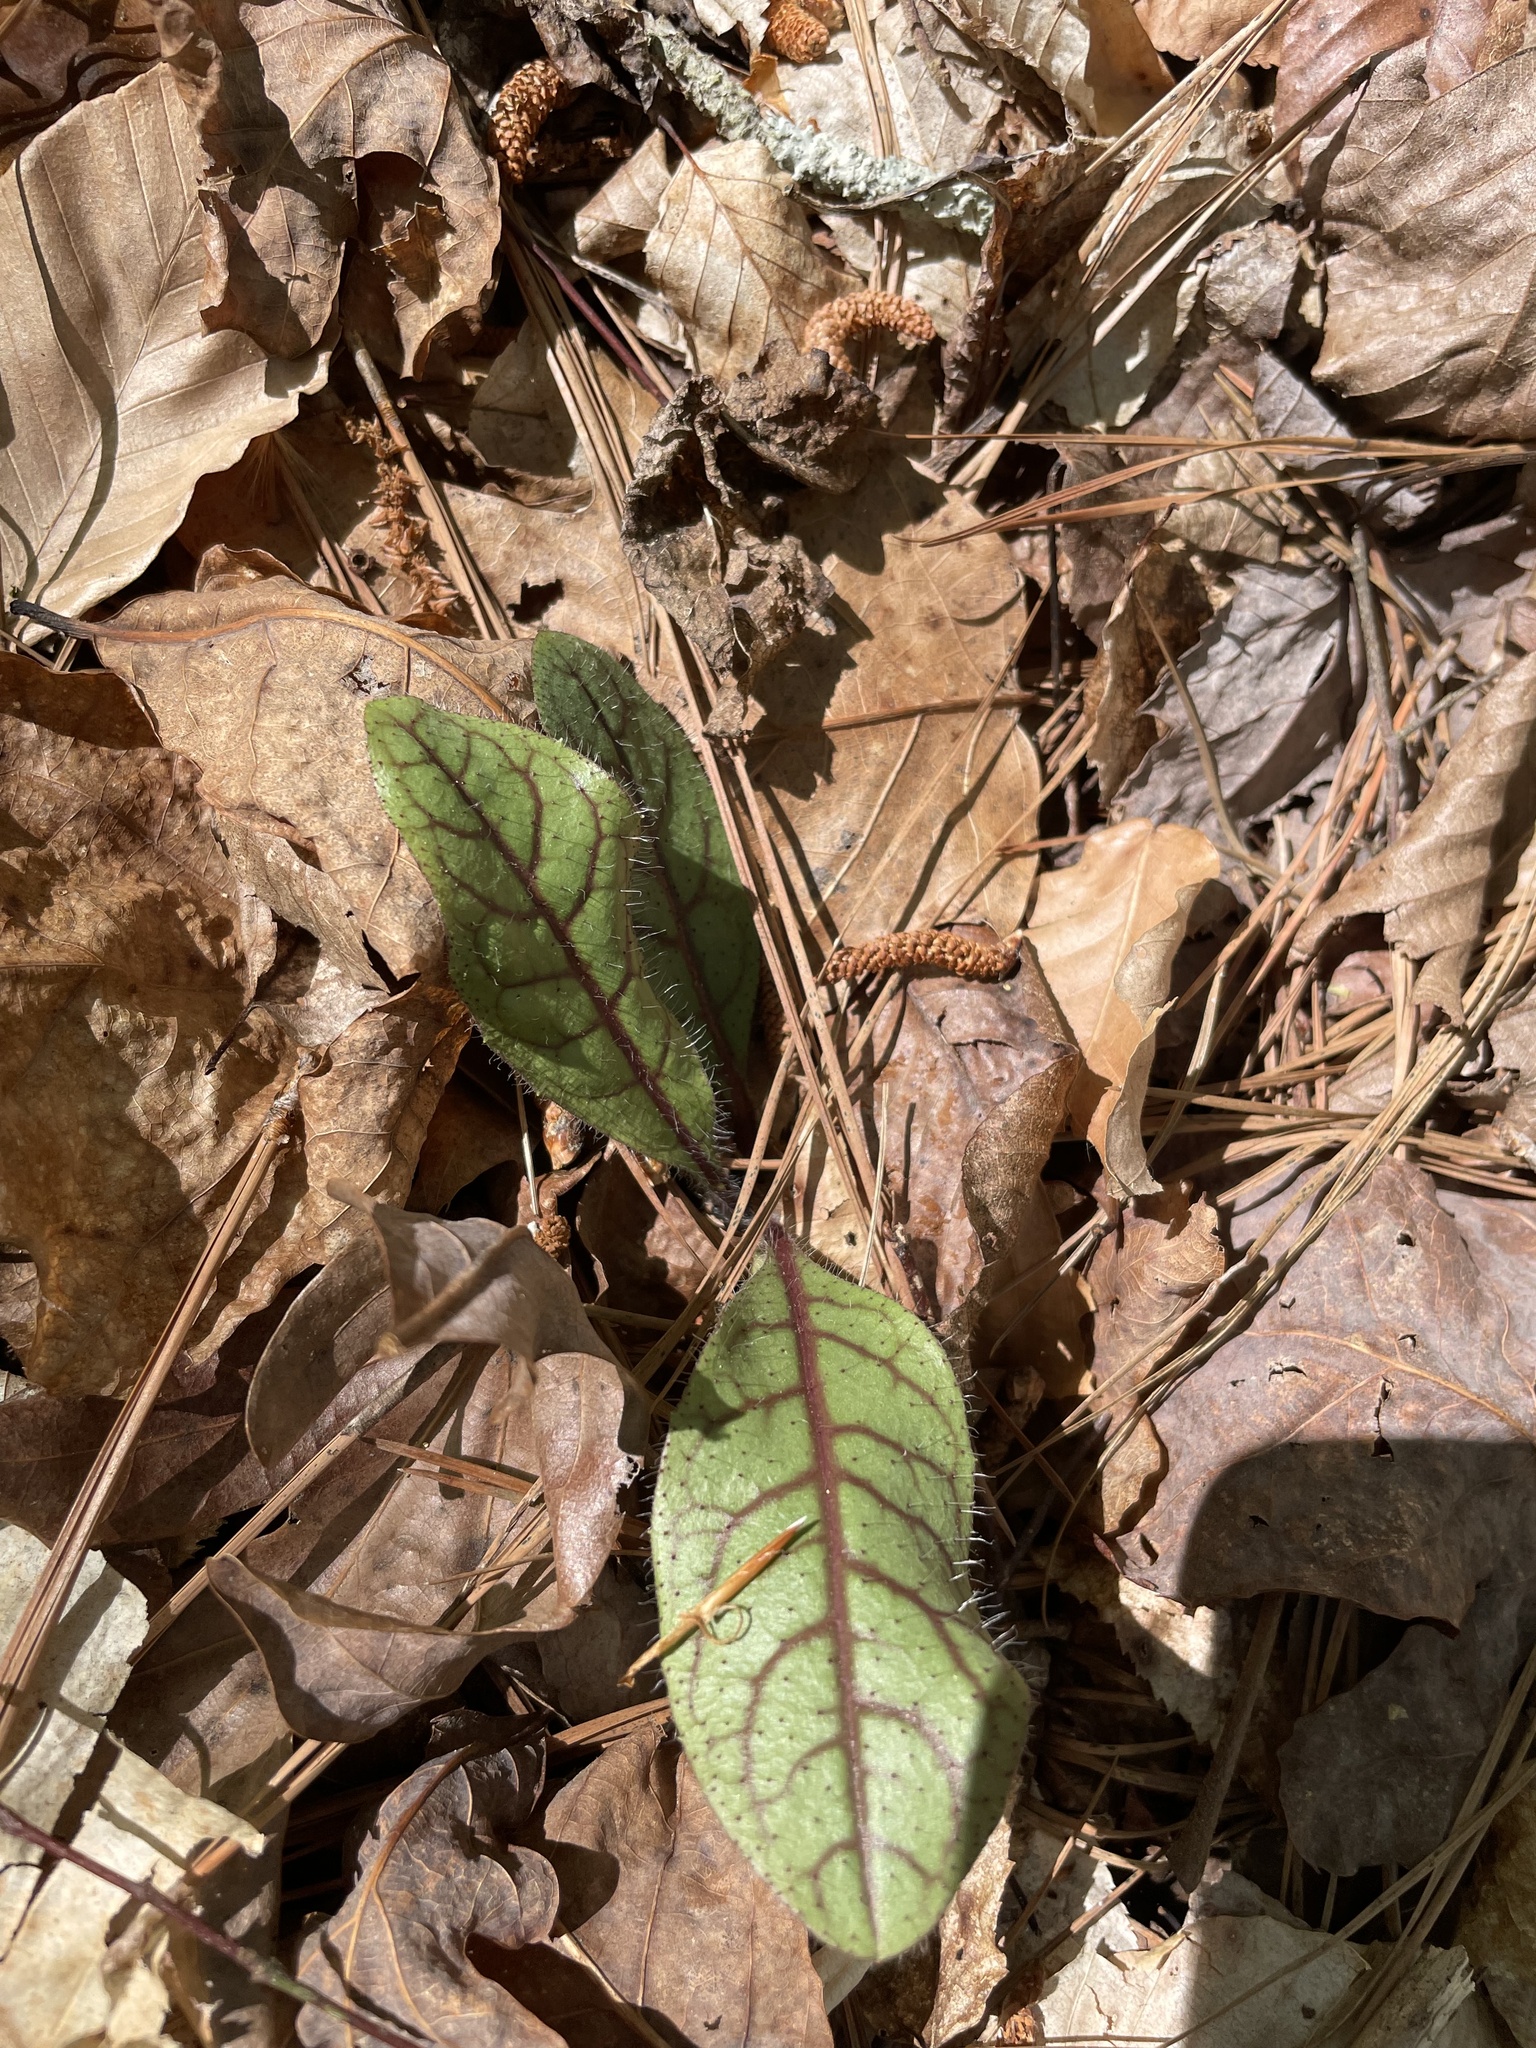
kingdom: Plantae
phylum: Tracheophyta
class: Magnoliopsida
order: Asterales
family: Asteraceae
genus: Hieracium
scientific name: Hieracium venosum
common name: Rattlesnake hawkweed
